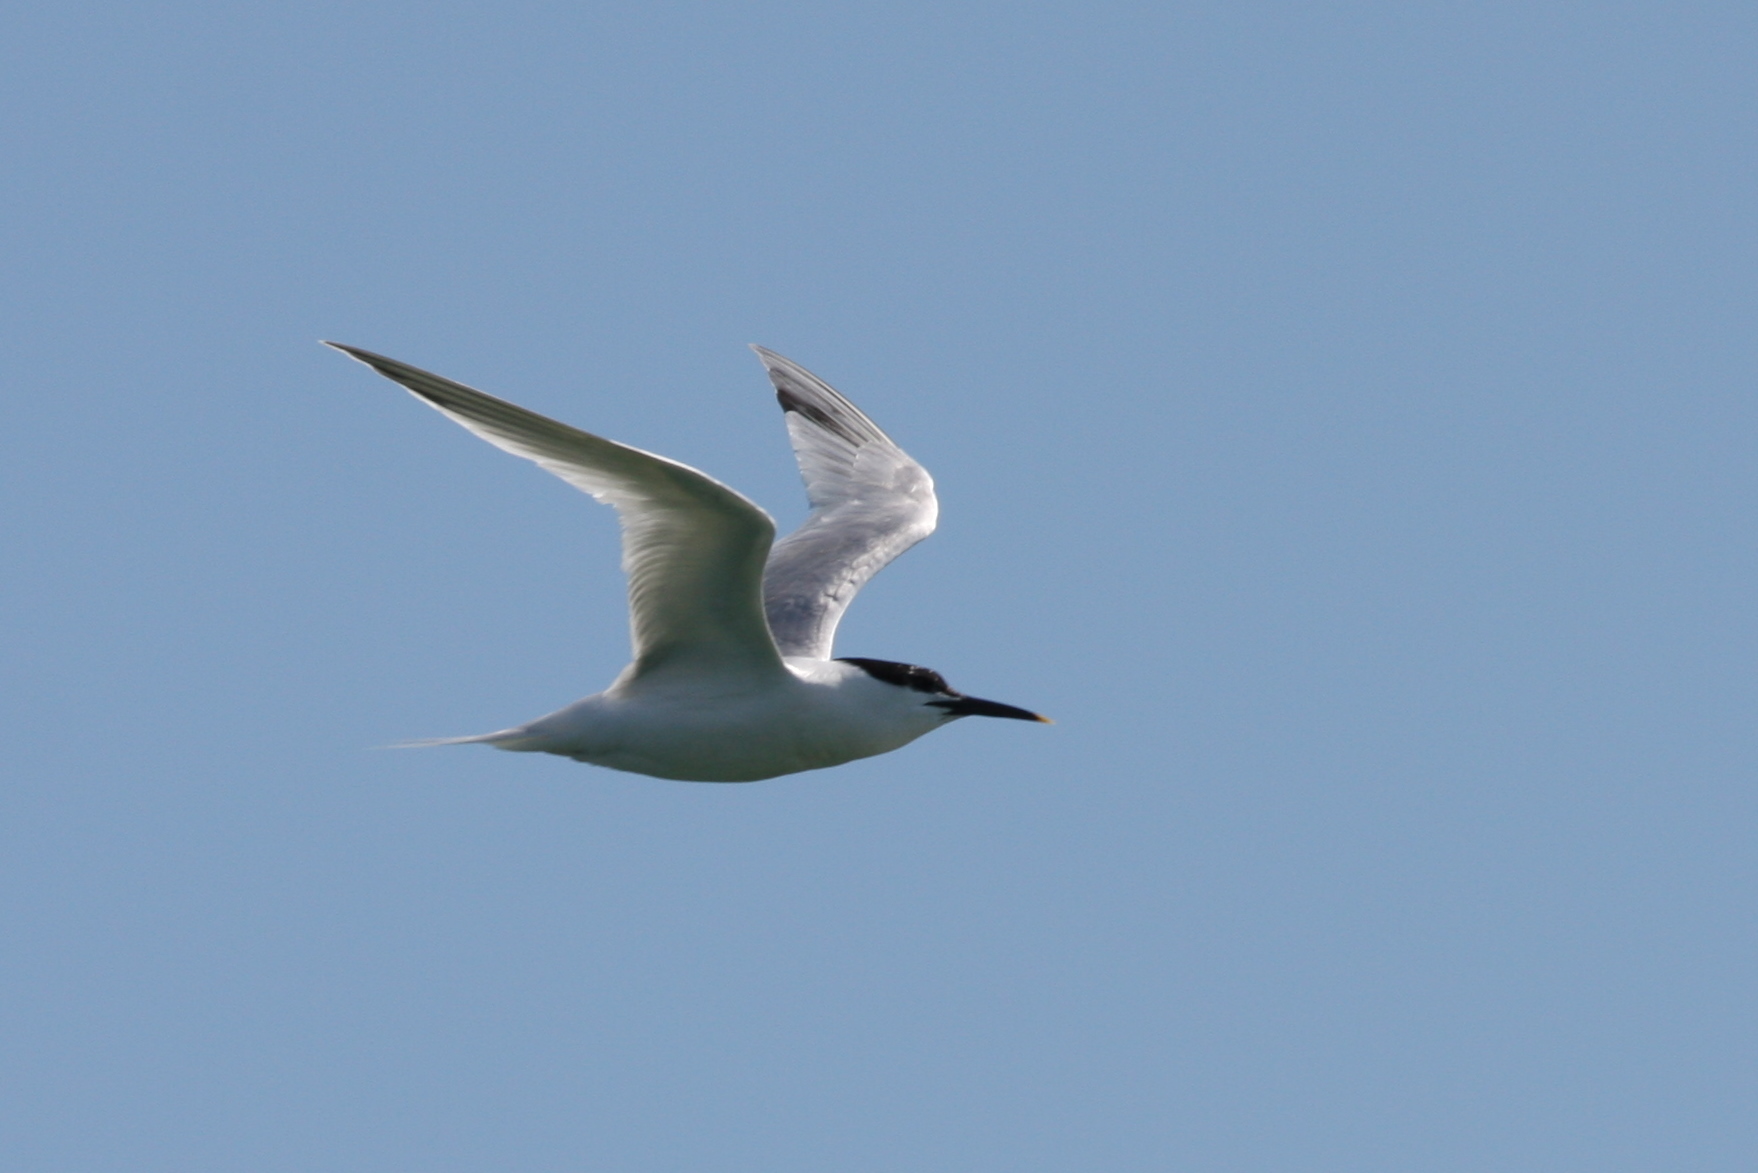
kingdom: Animalia
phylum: Chordata
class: Aves
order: Charadriiformes
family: Laridae
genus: Thalasseus
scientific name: Thalasseus sandvicensis
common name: Sandwich tern
